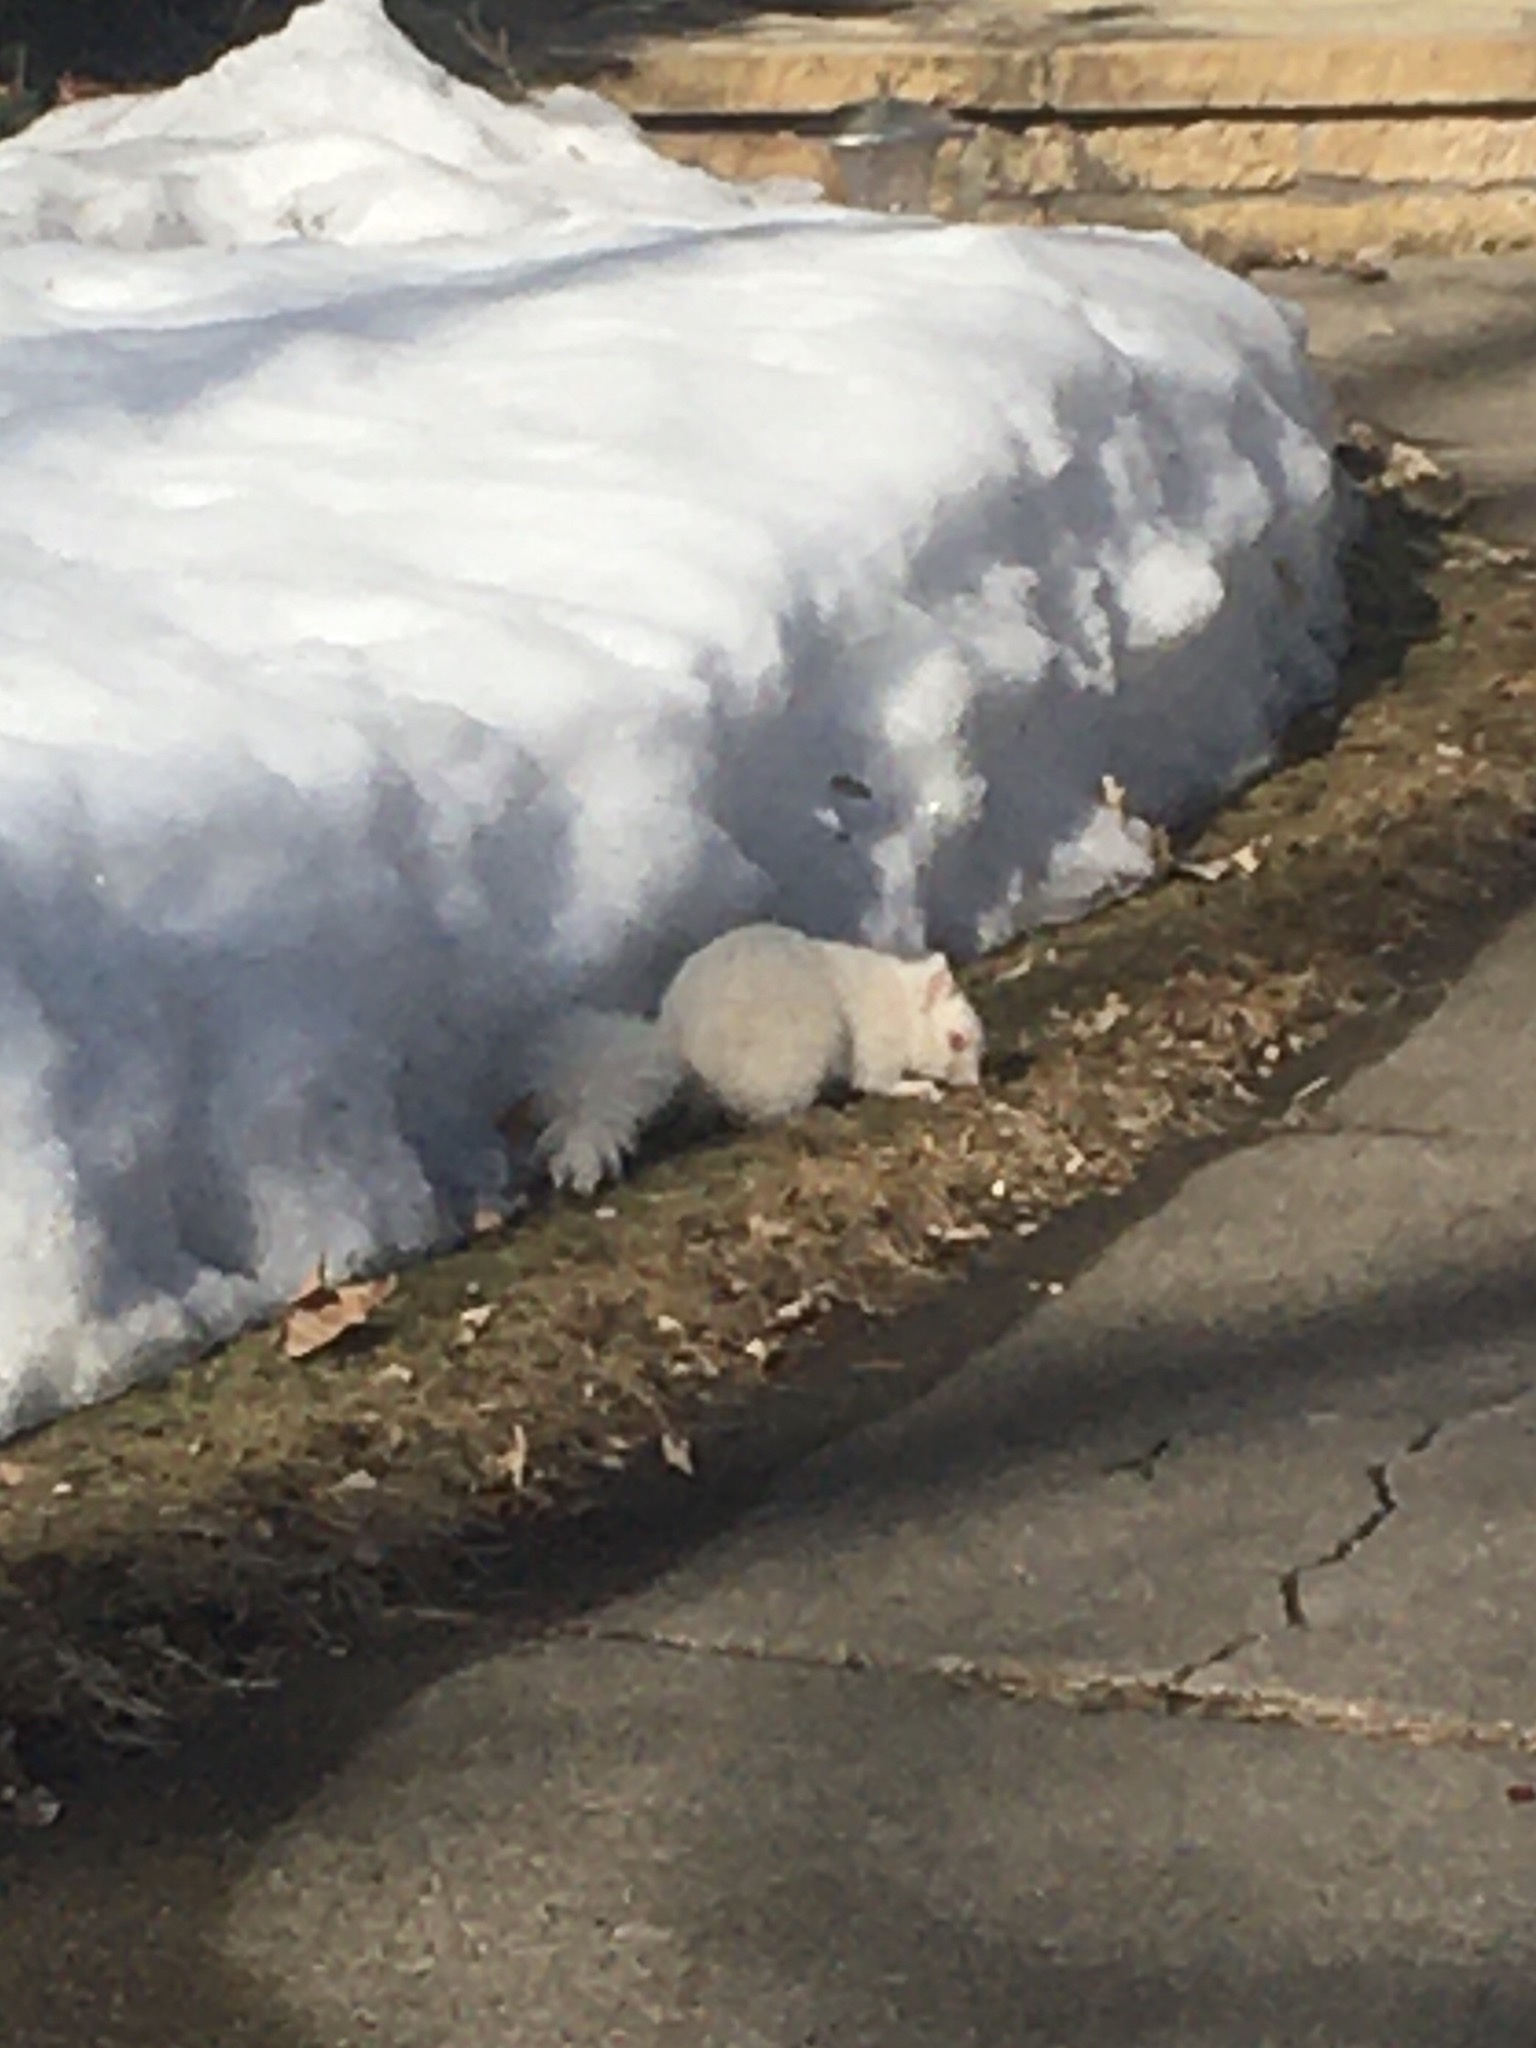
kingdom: Animalia
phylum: Chordata
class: Mammalia
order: Rodentia
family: Sciuridae
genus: Sciurus
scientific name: Sciurus carolinensis
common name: Eastern gray squirrel
